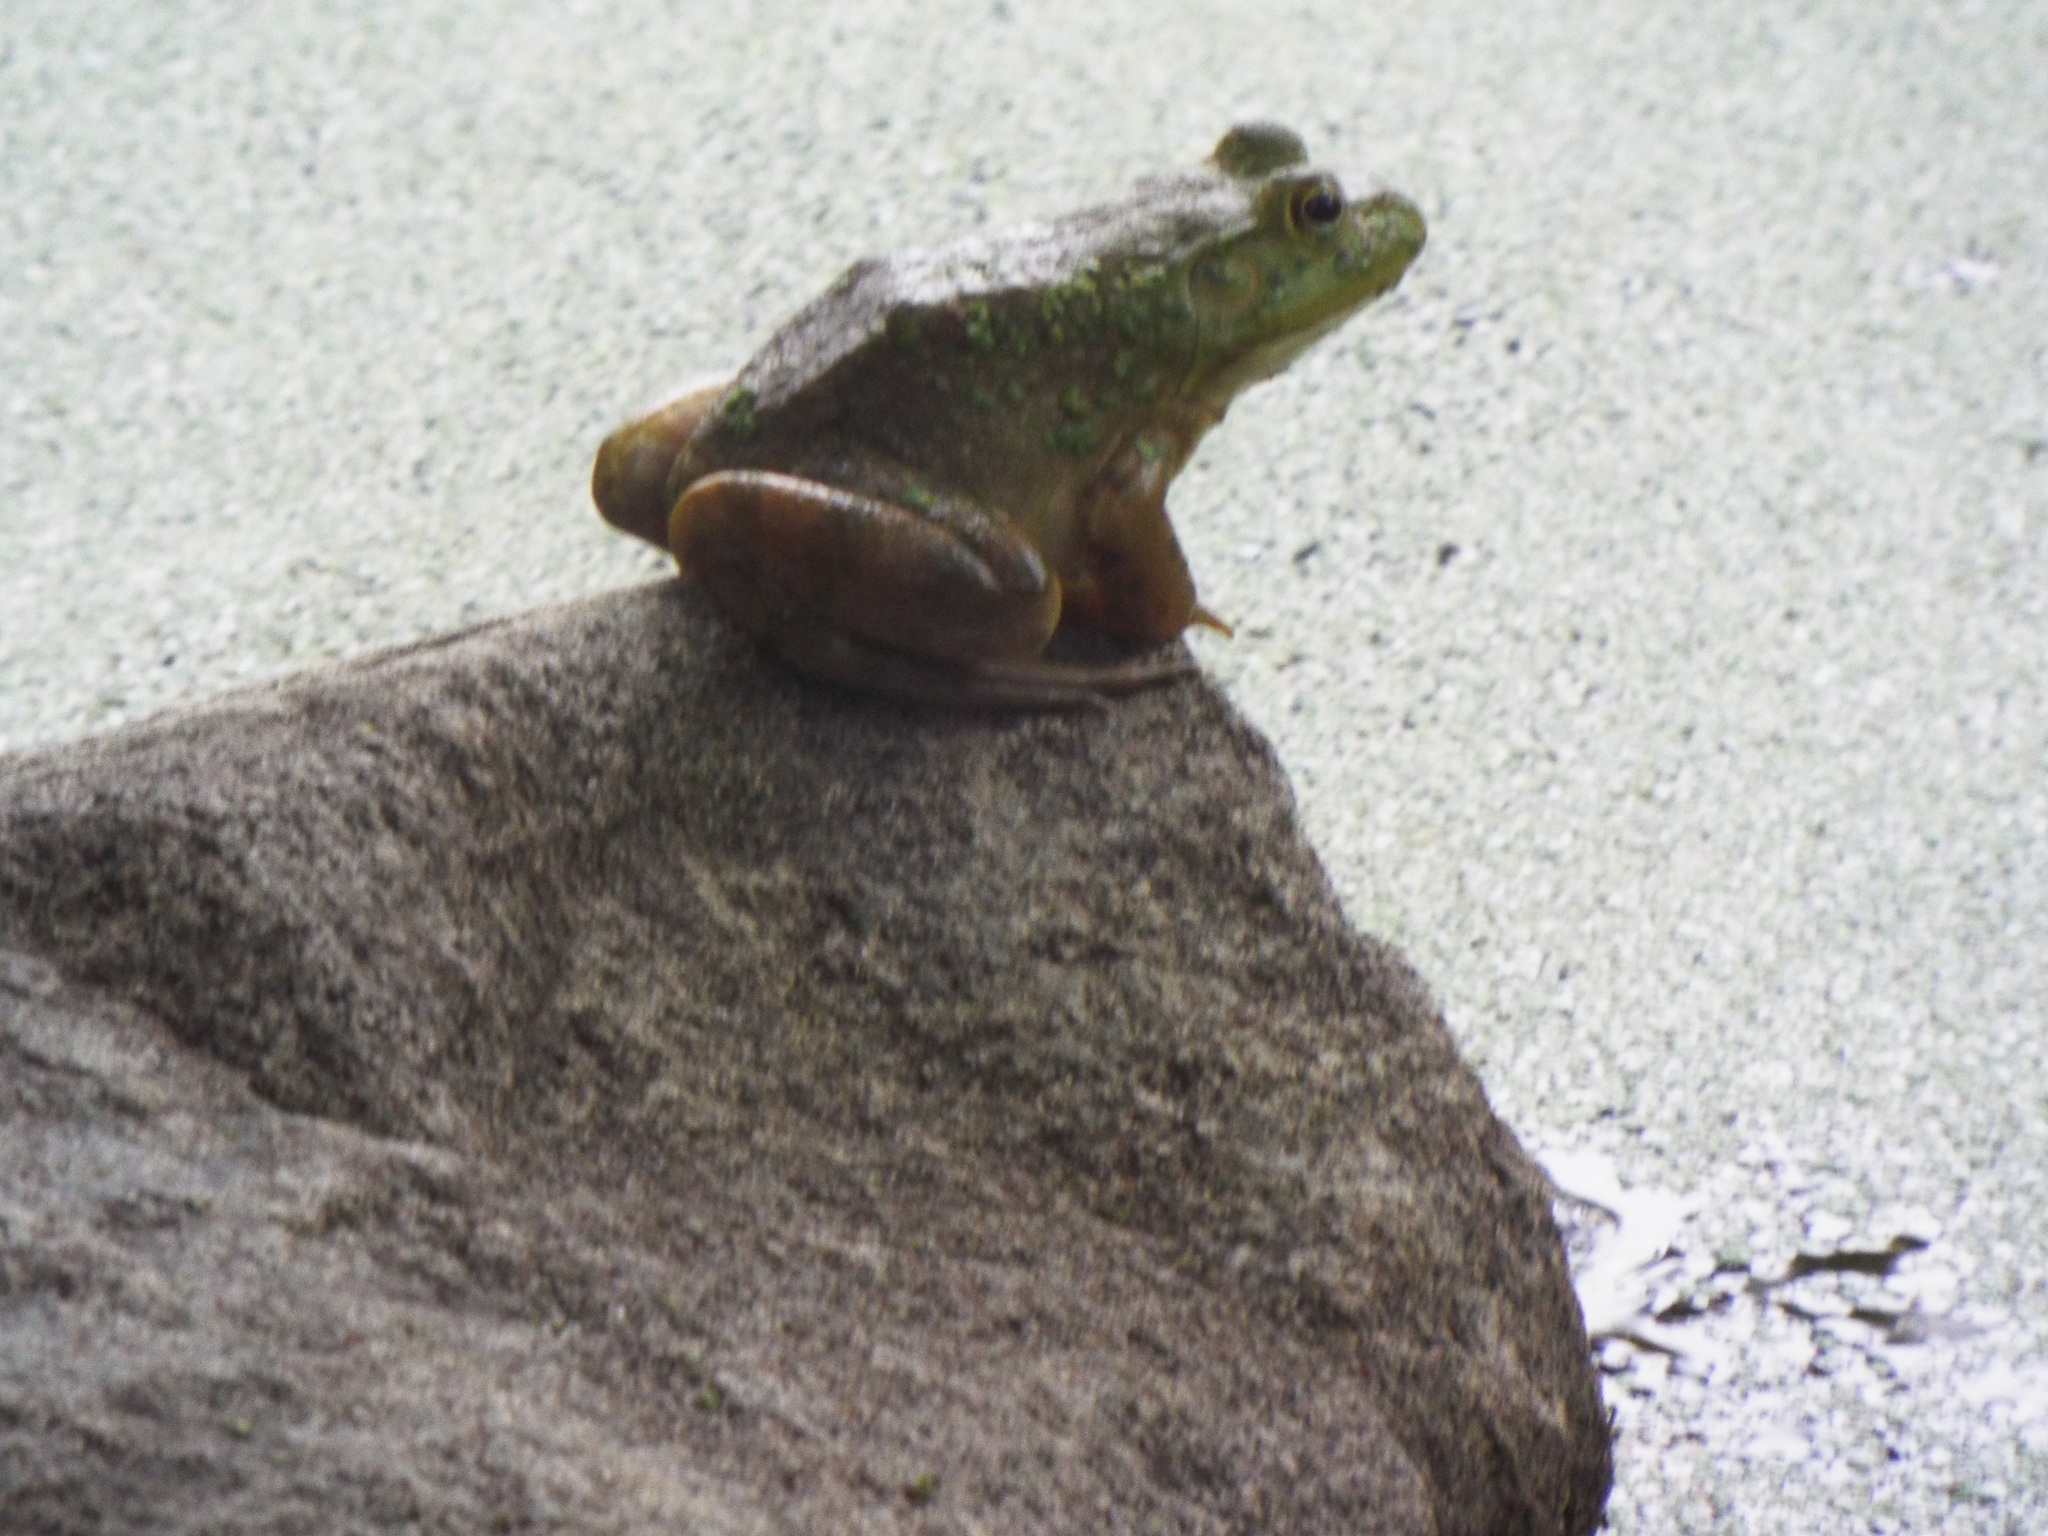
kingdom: Animalia
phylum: Chordata
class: Amphibia
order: Anura
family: Ranidae
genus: Lithobates
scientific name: Lithobates catesbeianus
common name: American bullfrog
